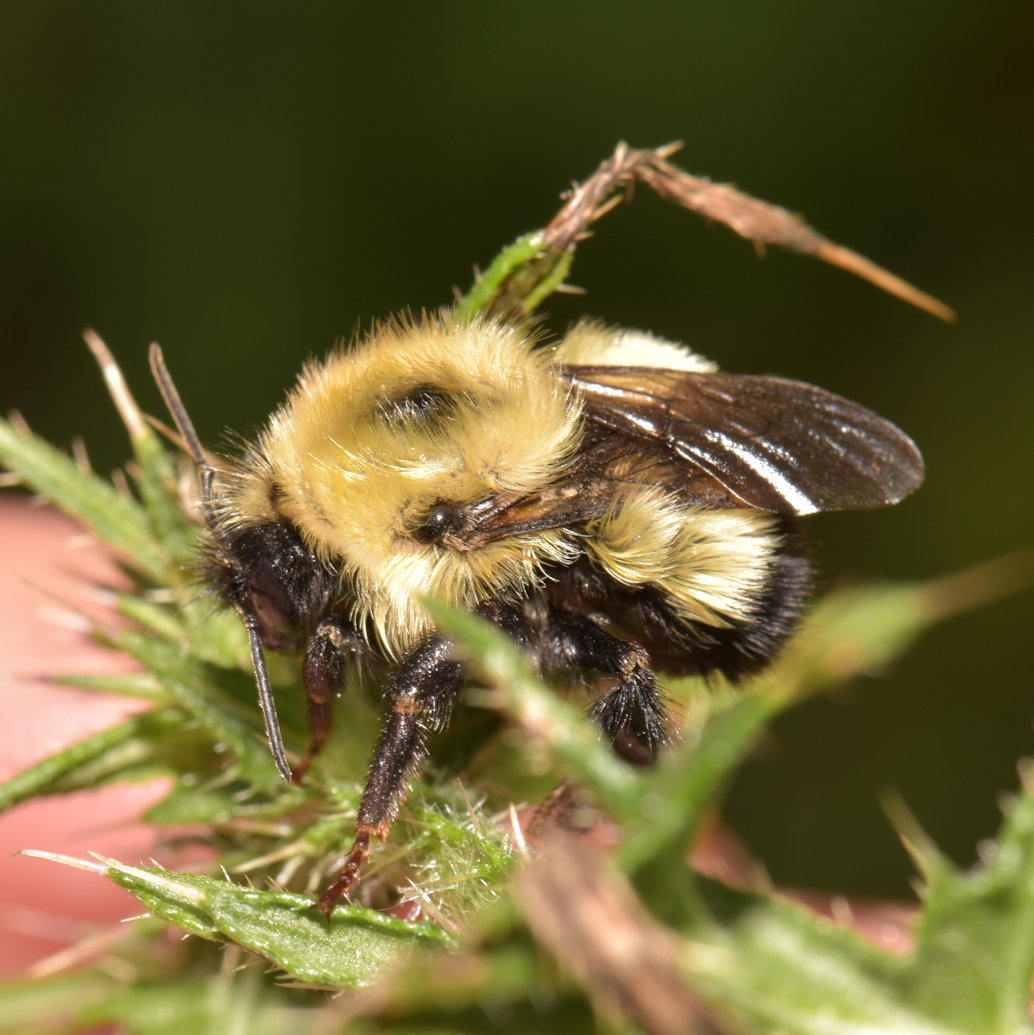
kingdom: Animalia
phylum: Arthropoda
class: Insecta
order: Hymenoptera
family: Apidae
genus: Bombus
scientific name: Bombus vagans
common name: Half-black bumble bee
